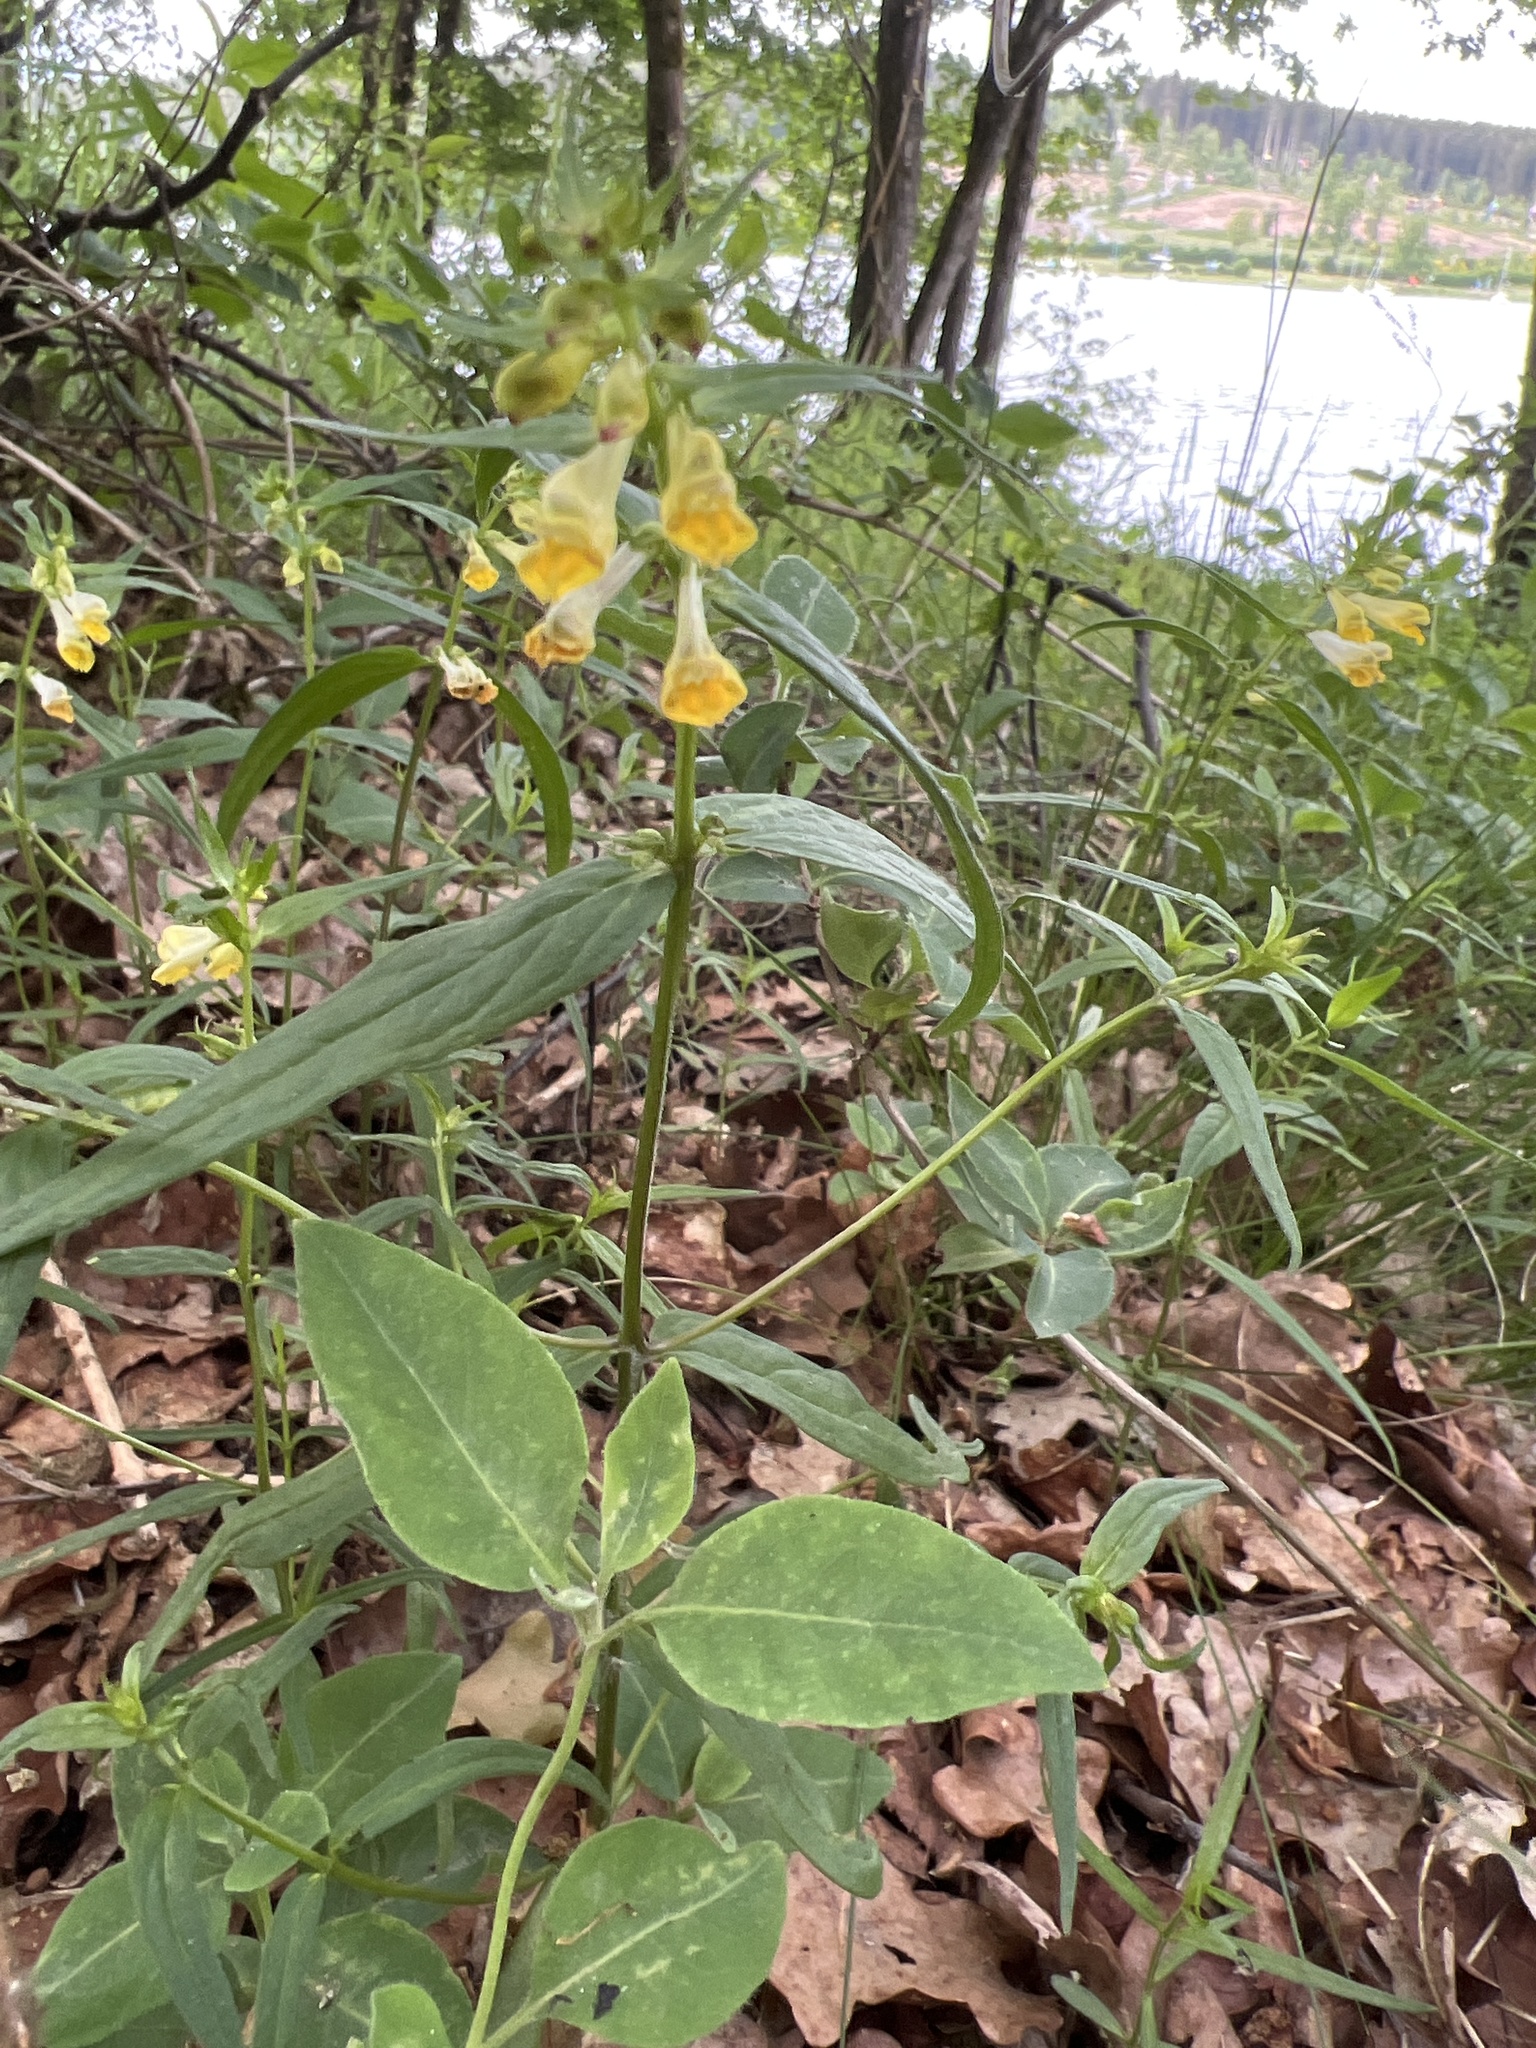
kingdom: Plantae
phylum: Tracheophyta
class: Magnoliopsida
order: Lamiales
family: Orobanchaceae
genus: Melampyrum
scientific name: Melampyrum pratense
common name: Common cow-wheat
